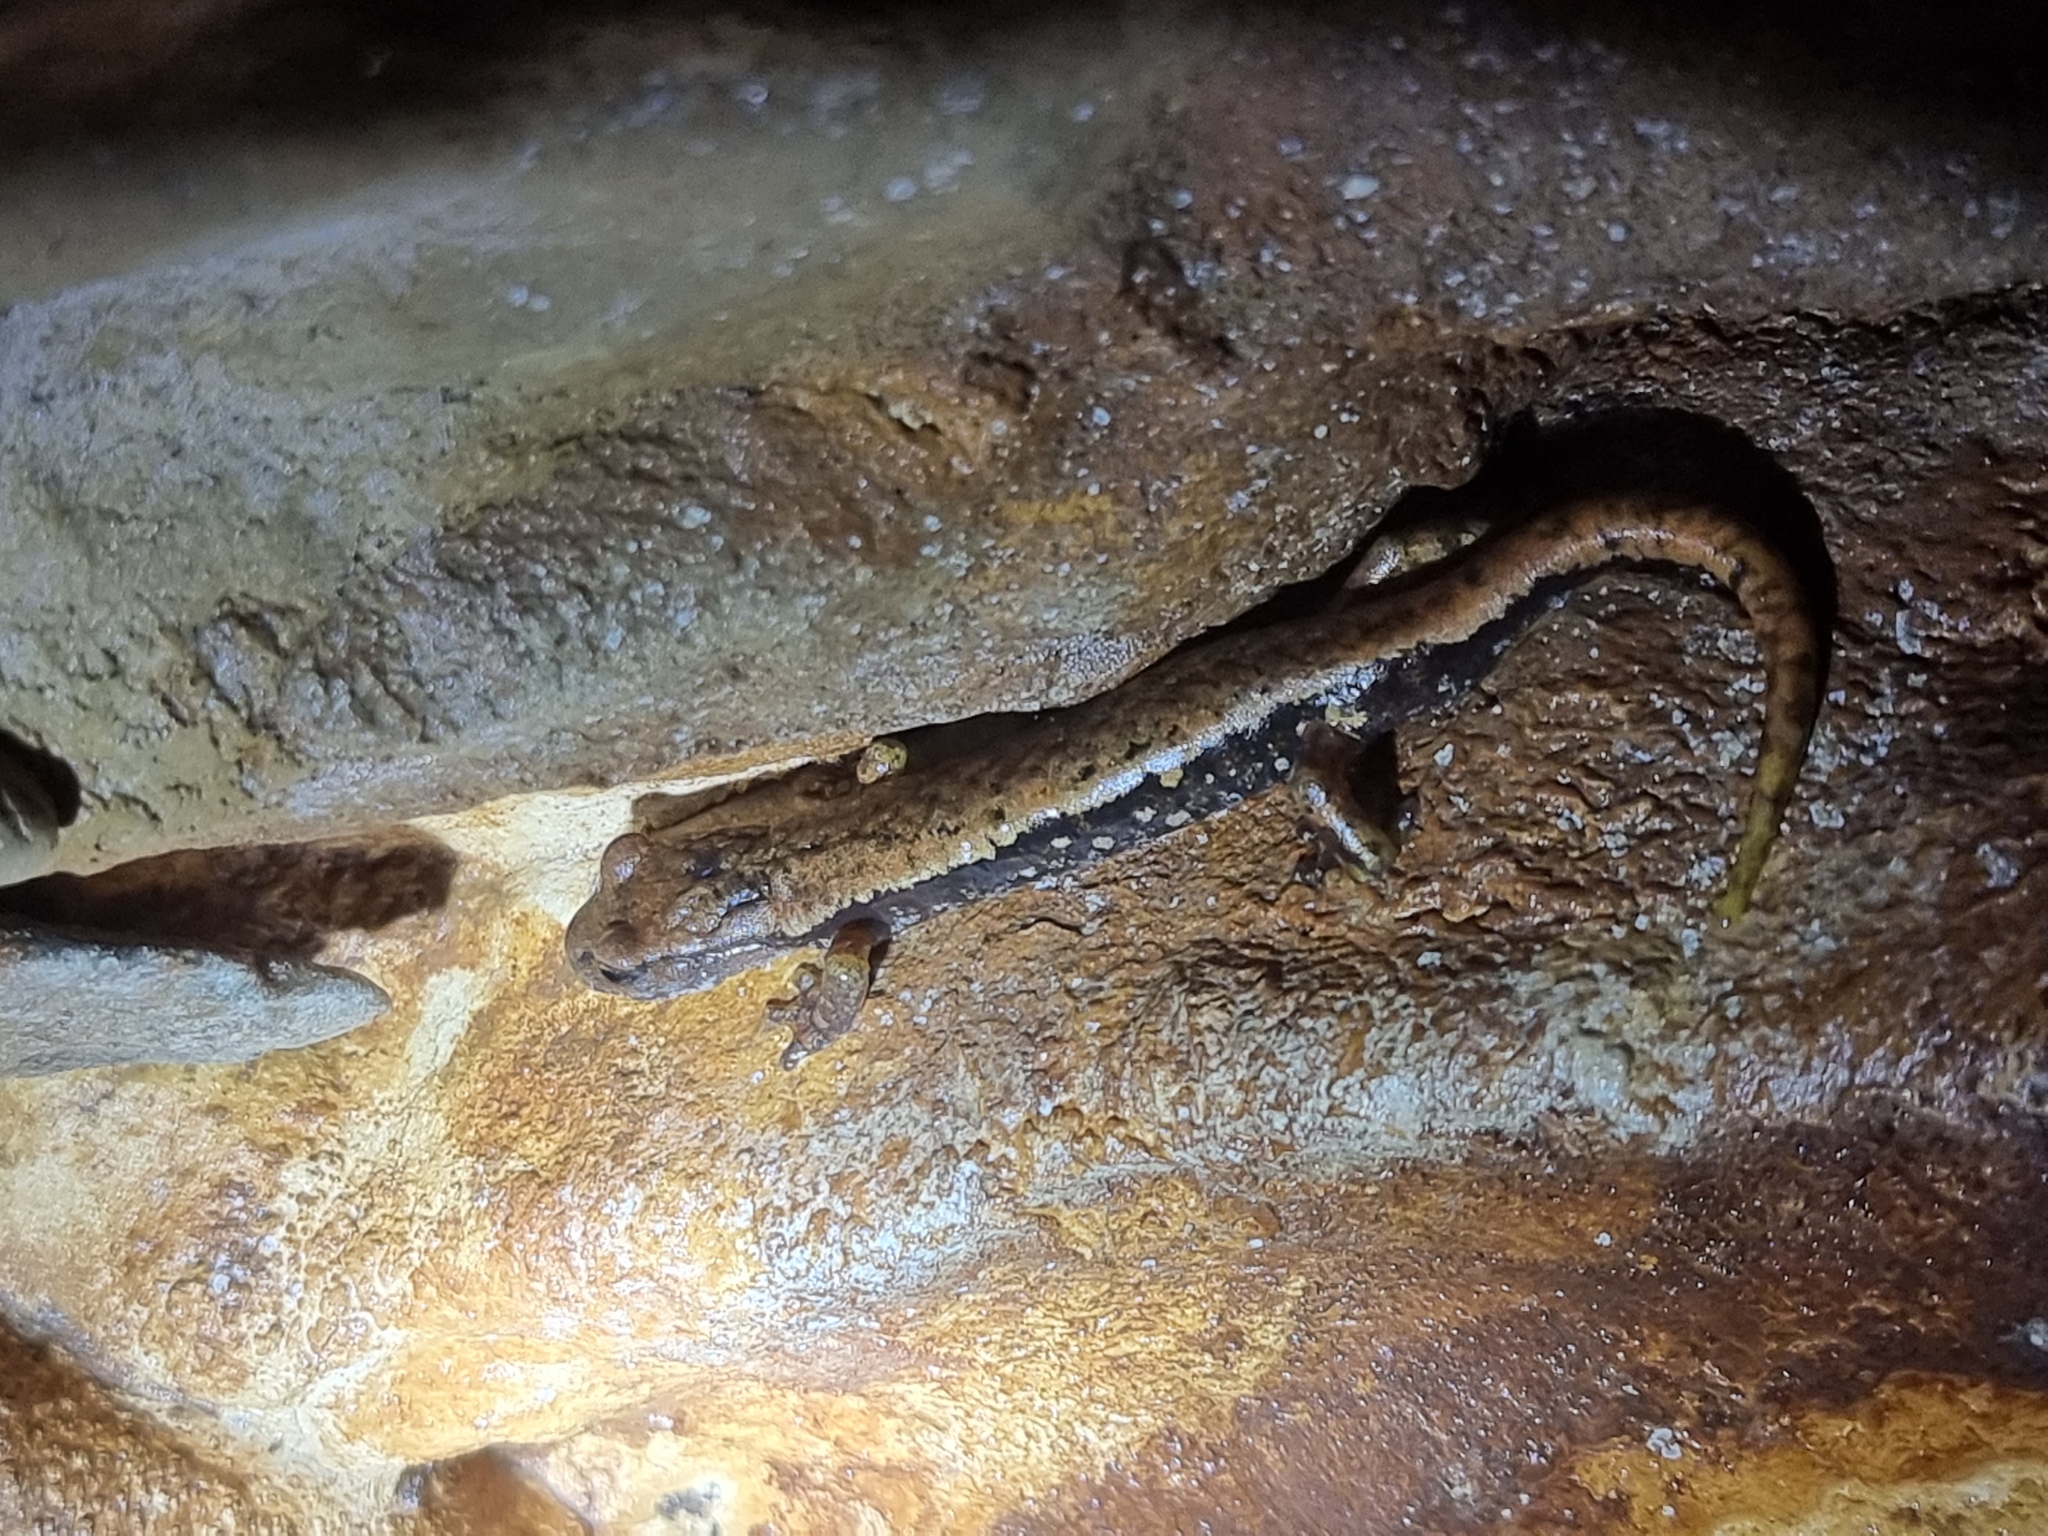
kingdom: Animalia
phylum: Chordata
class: Amphibia
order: Caudata
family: Plethodontidae
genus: Speleomantes
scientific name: Speleomantes italicus
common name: Italian cave salamander
